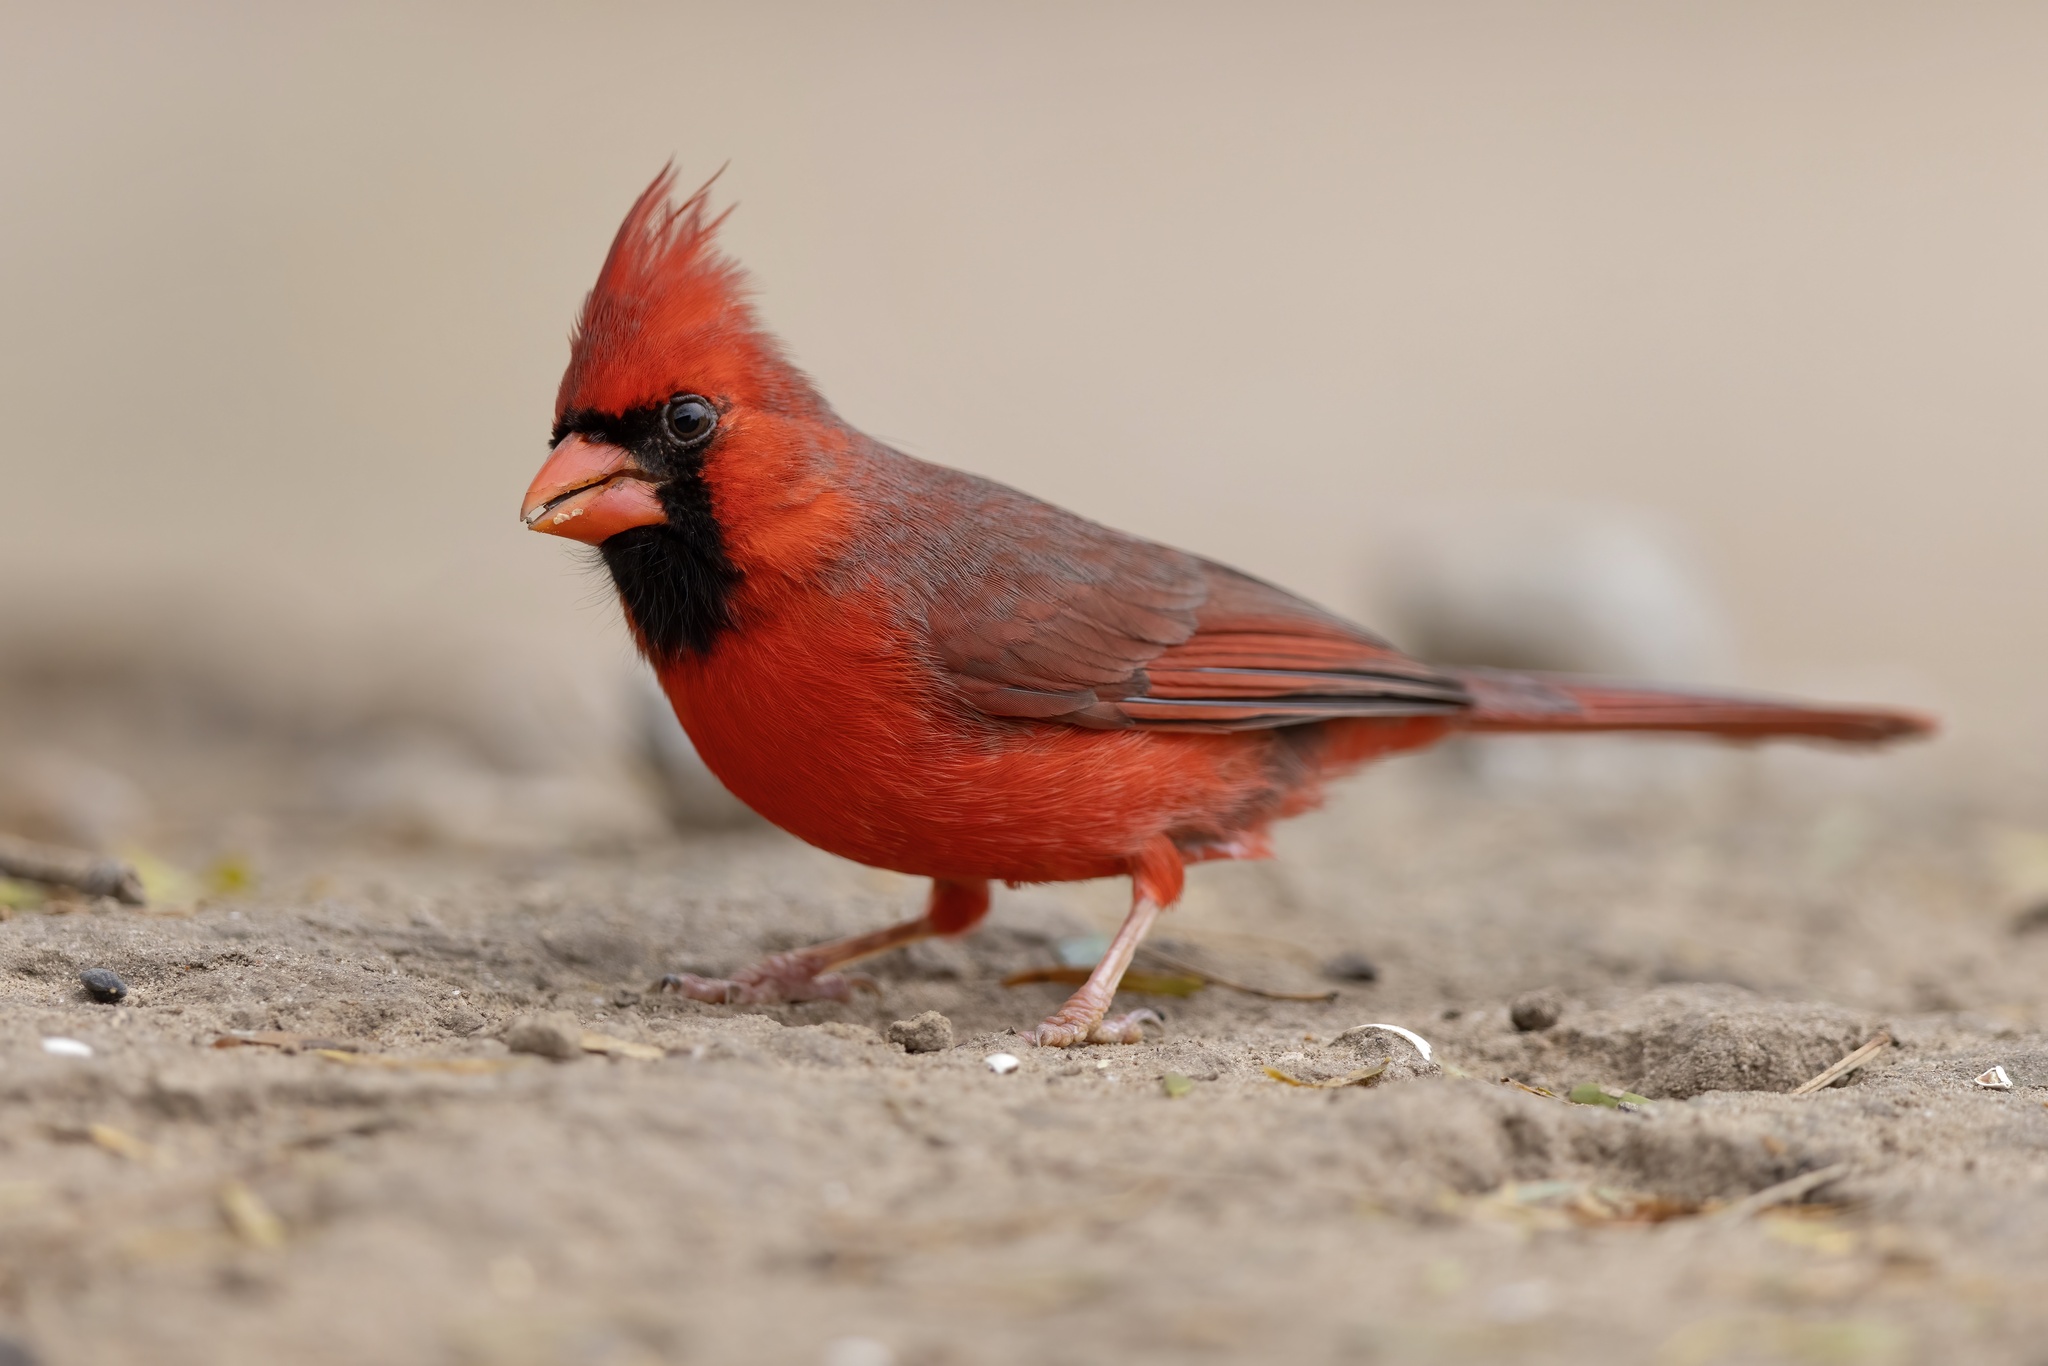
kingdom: Animalia
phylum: Chordata
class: Aves
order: Passeriformes
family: Cardinalidae
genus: Cardinalis
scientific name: Cardinalis cardinalis
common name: Northern cardinal
